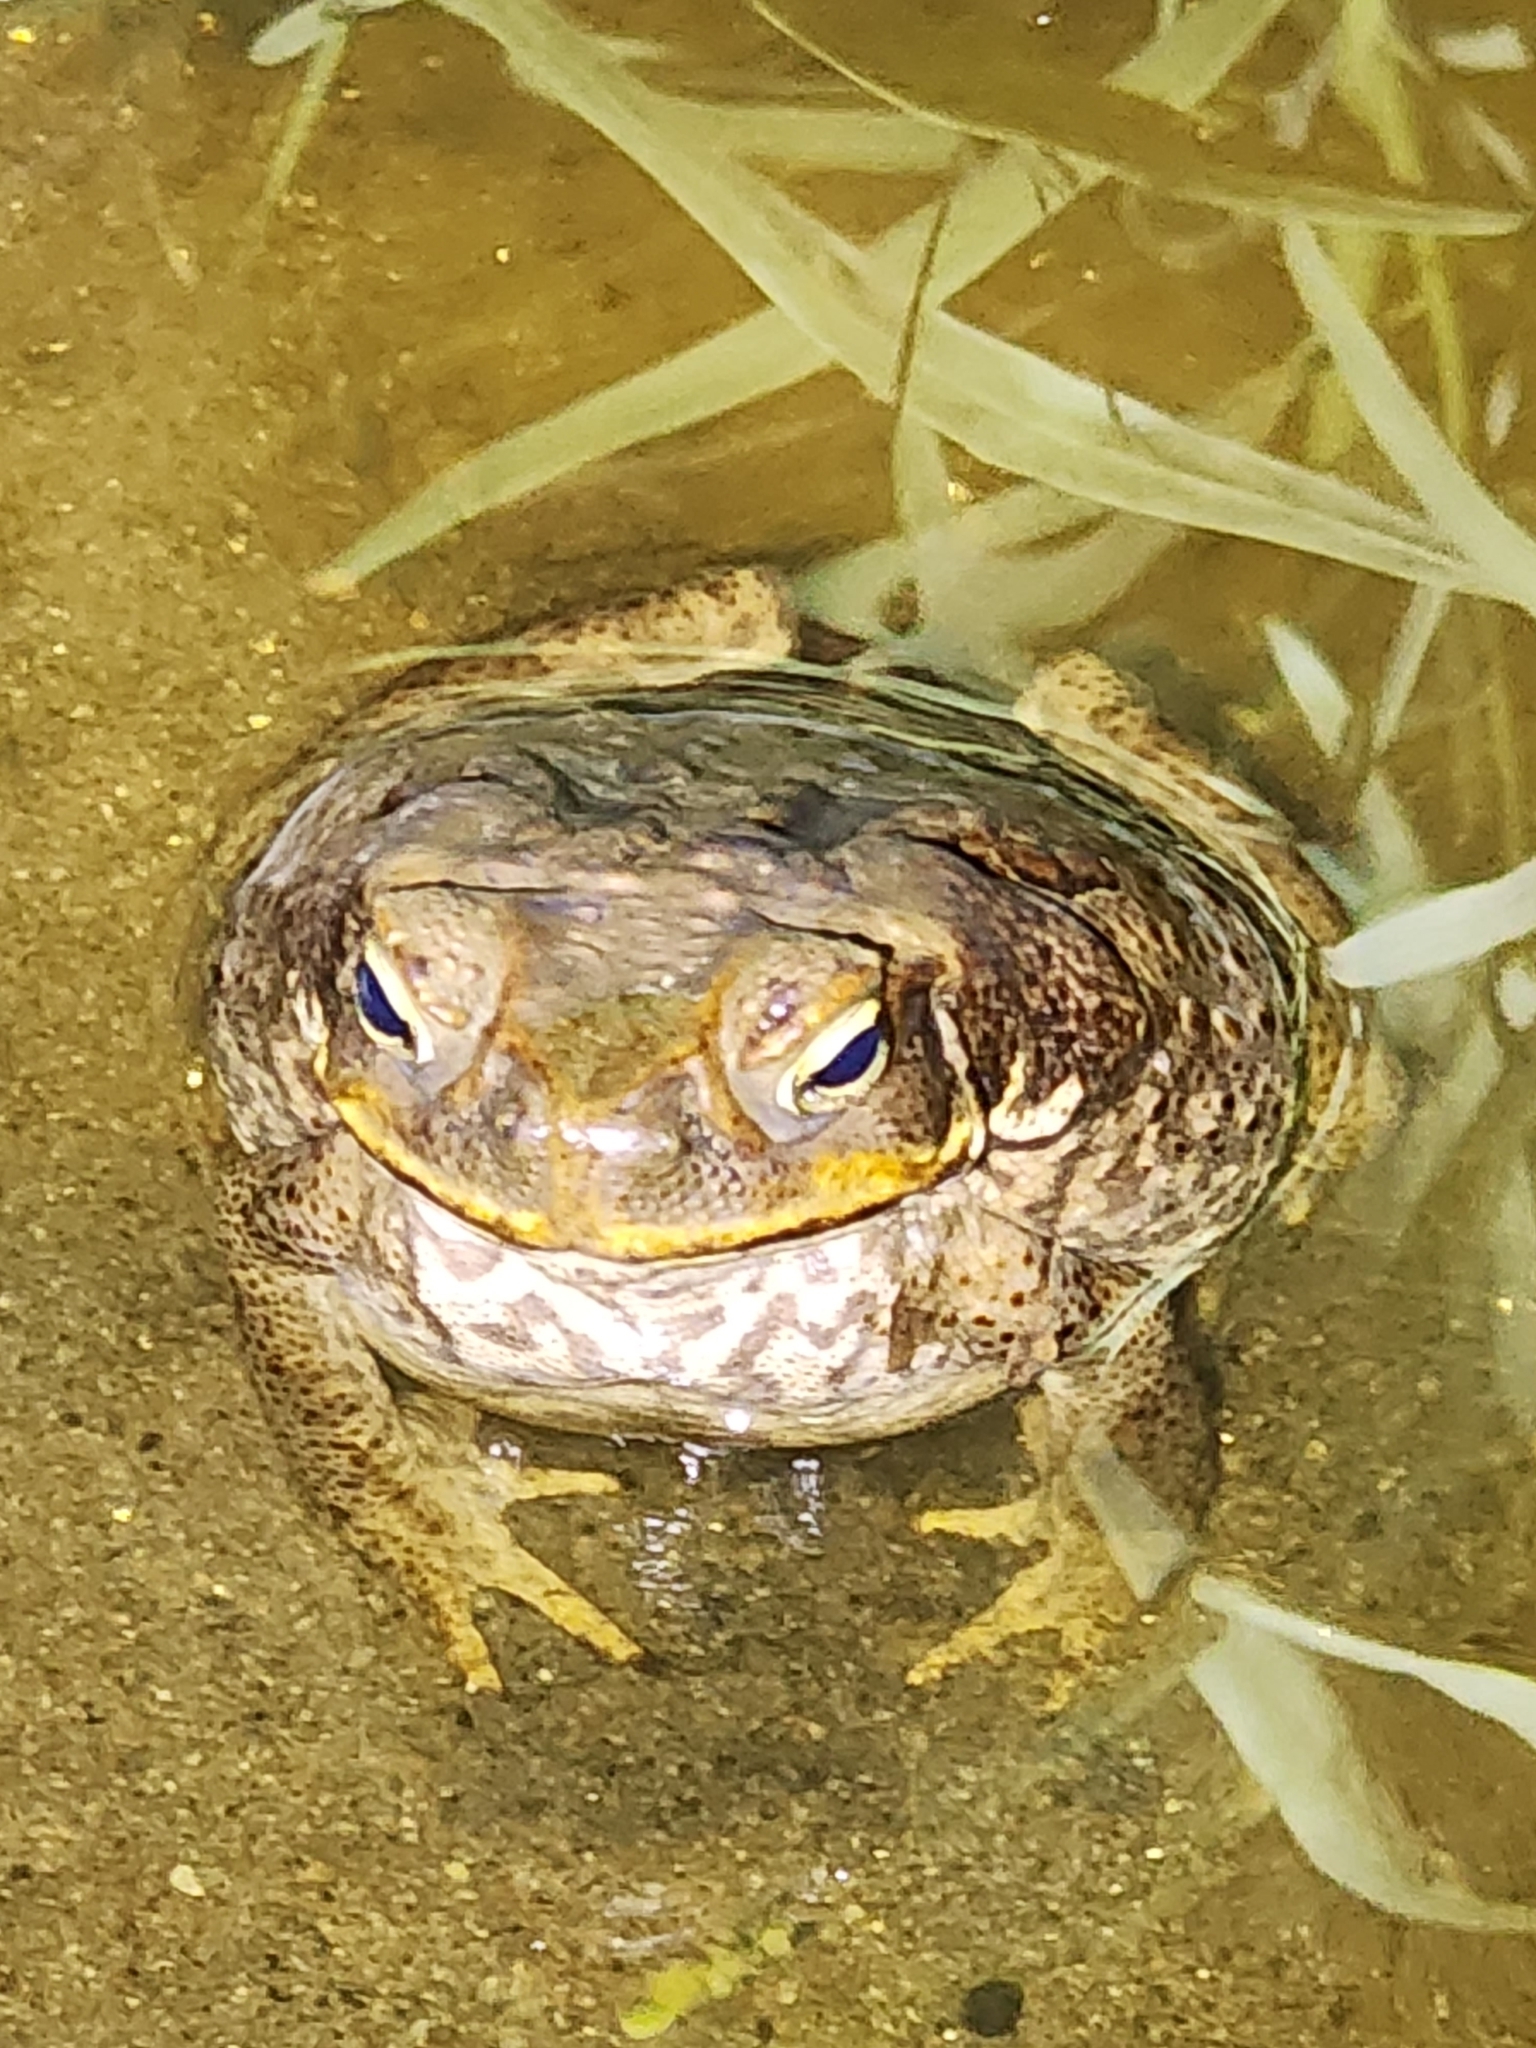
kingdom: Animalia
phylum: Chordata
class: Amphibia
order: Anura
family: Bufonidae
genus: Rhinella
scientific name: Rhinella marina
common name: Cane toad
